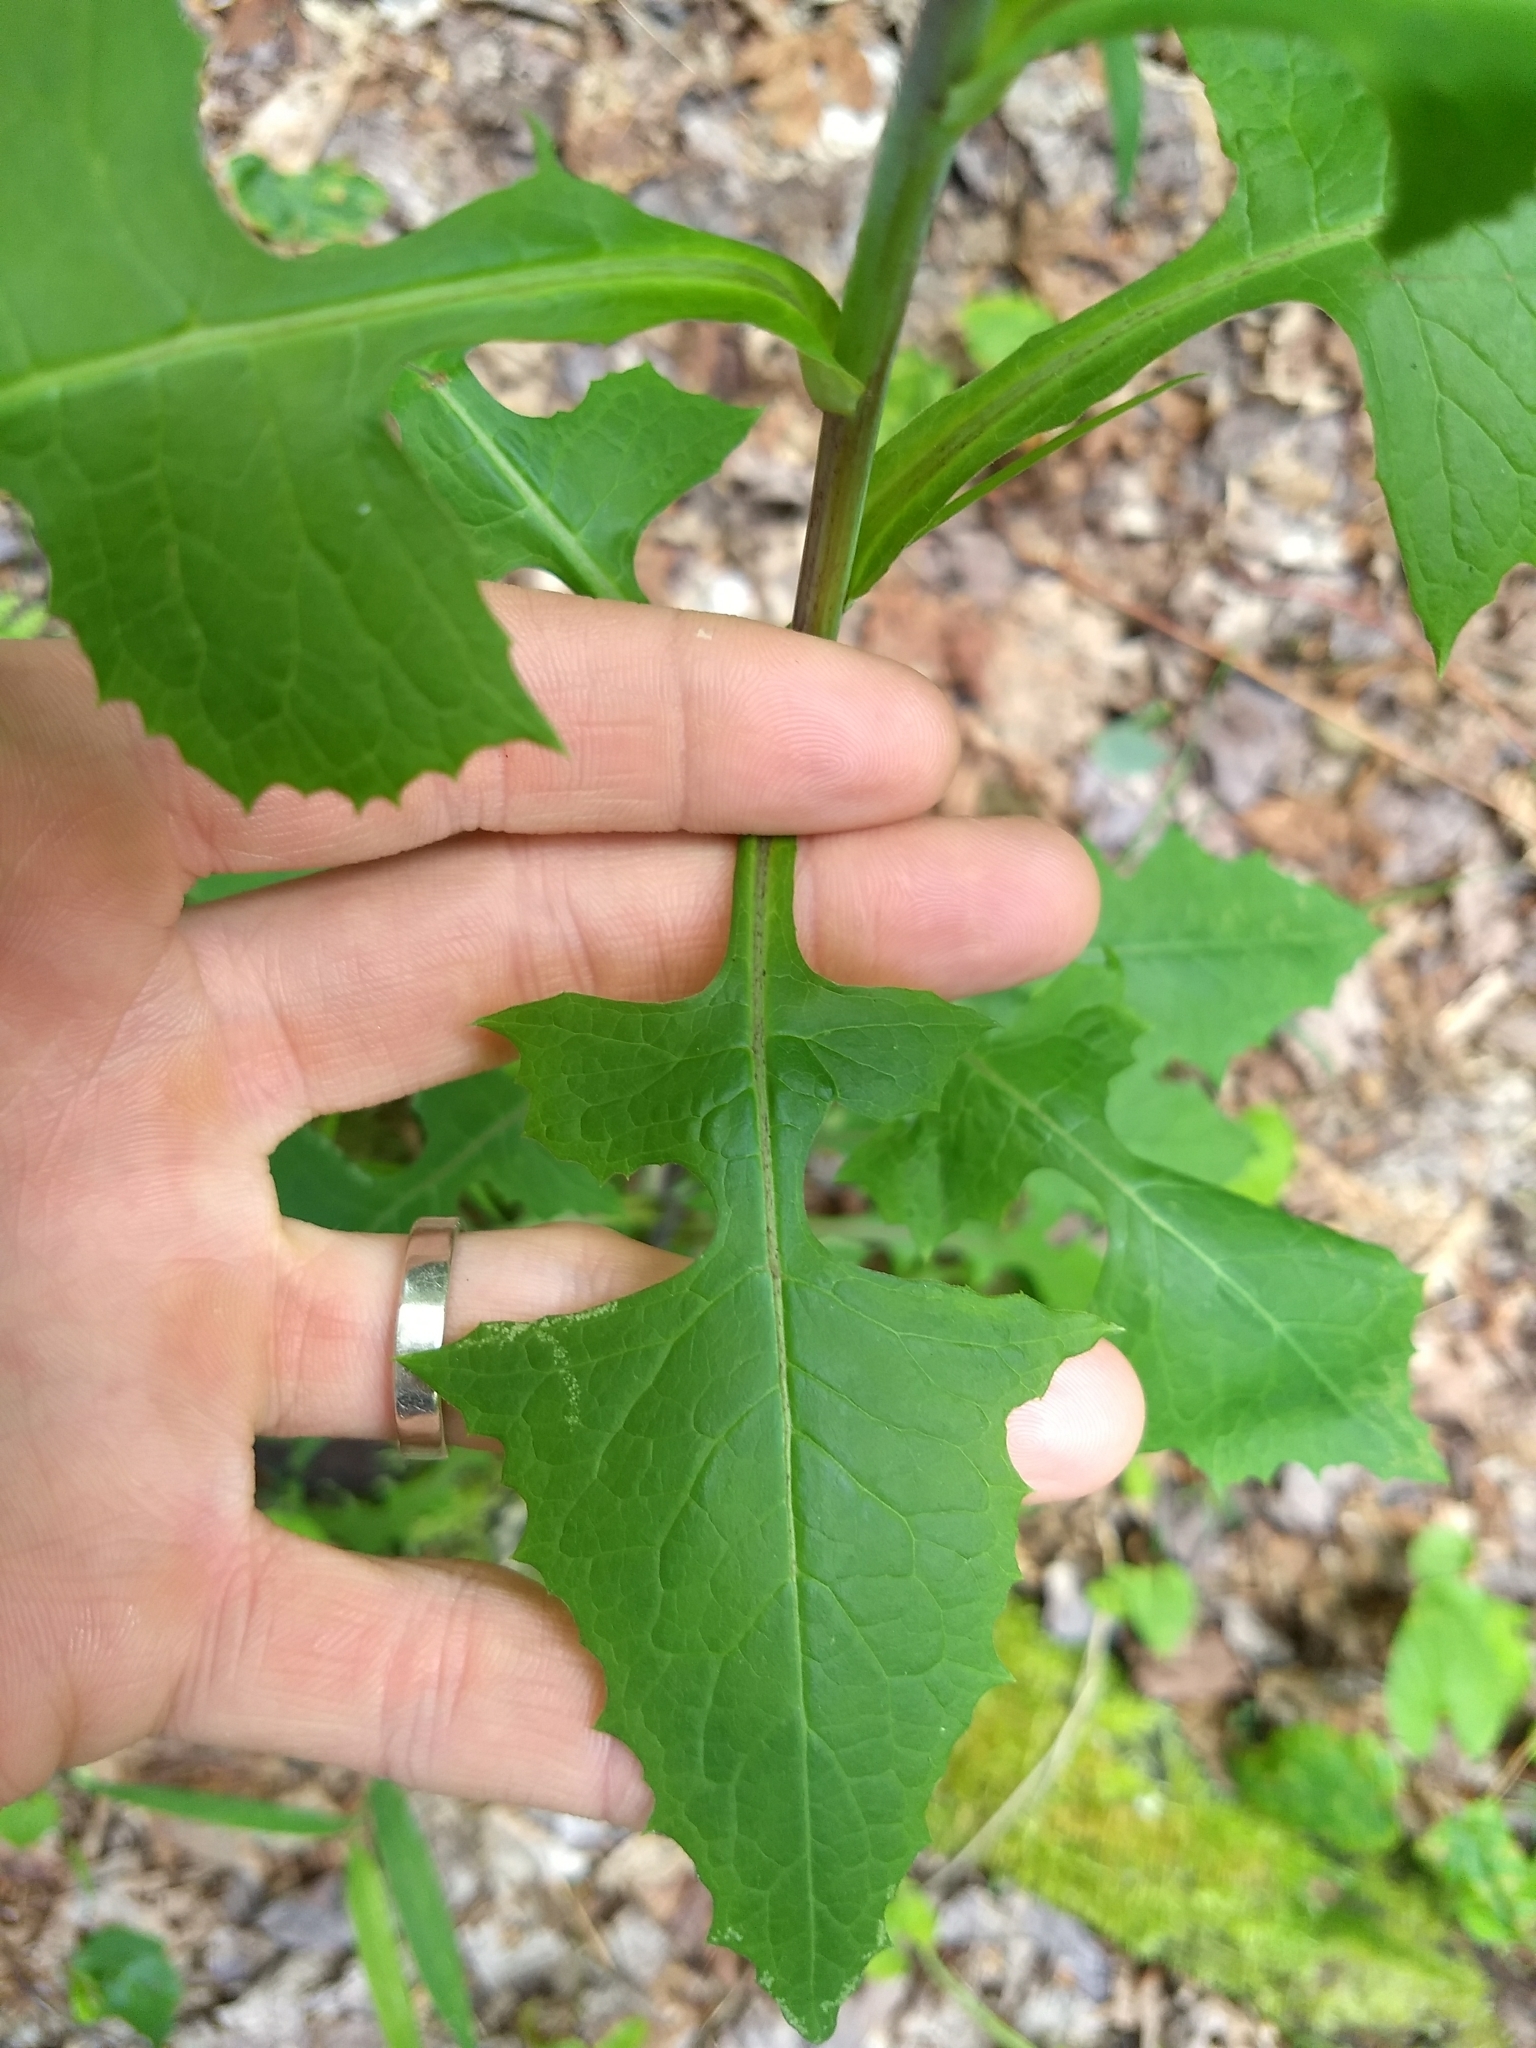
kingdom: Plantae
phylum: Tracheophyta
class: Magnoliopsida
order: Asterales
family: Asteraceae
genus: Lactuca
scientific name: Lactuca biennis
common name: Blue wood lettuce
